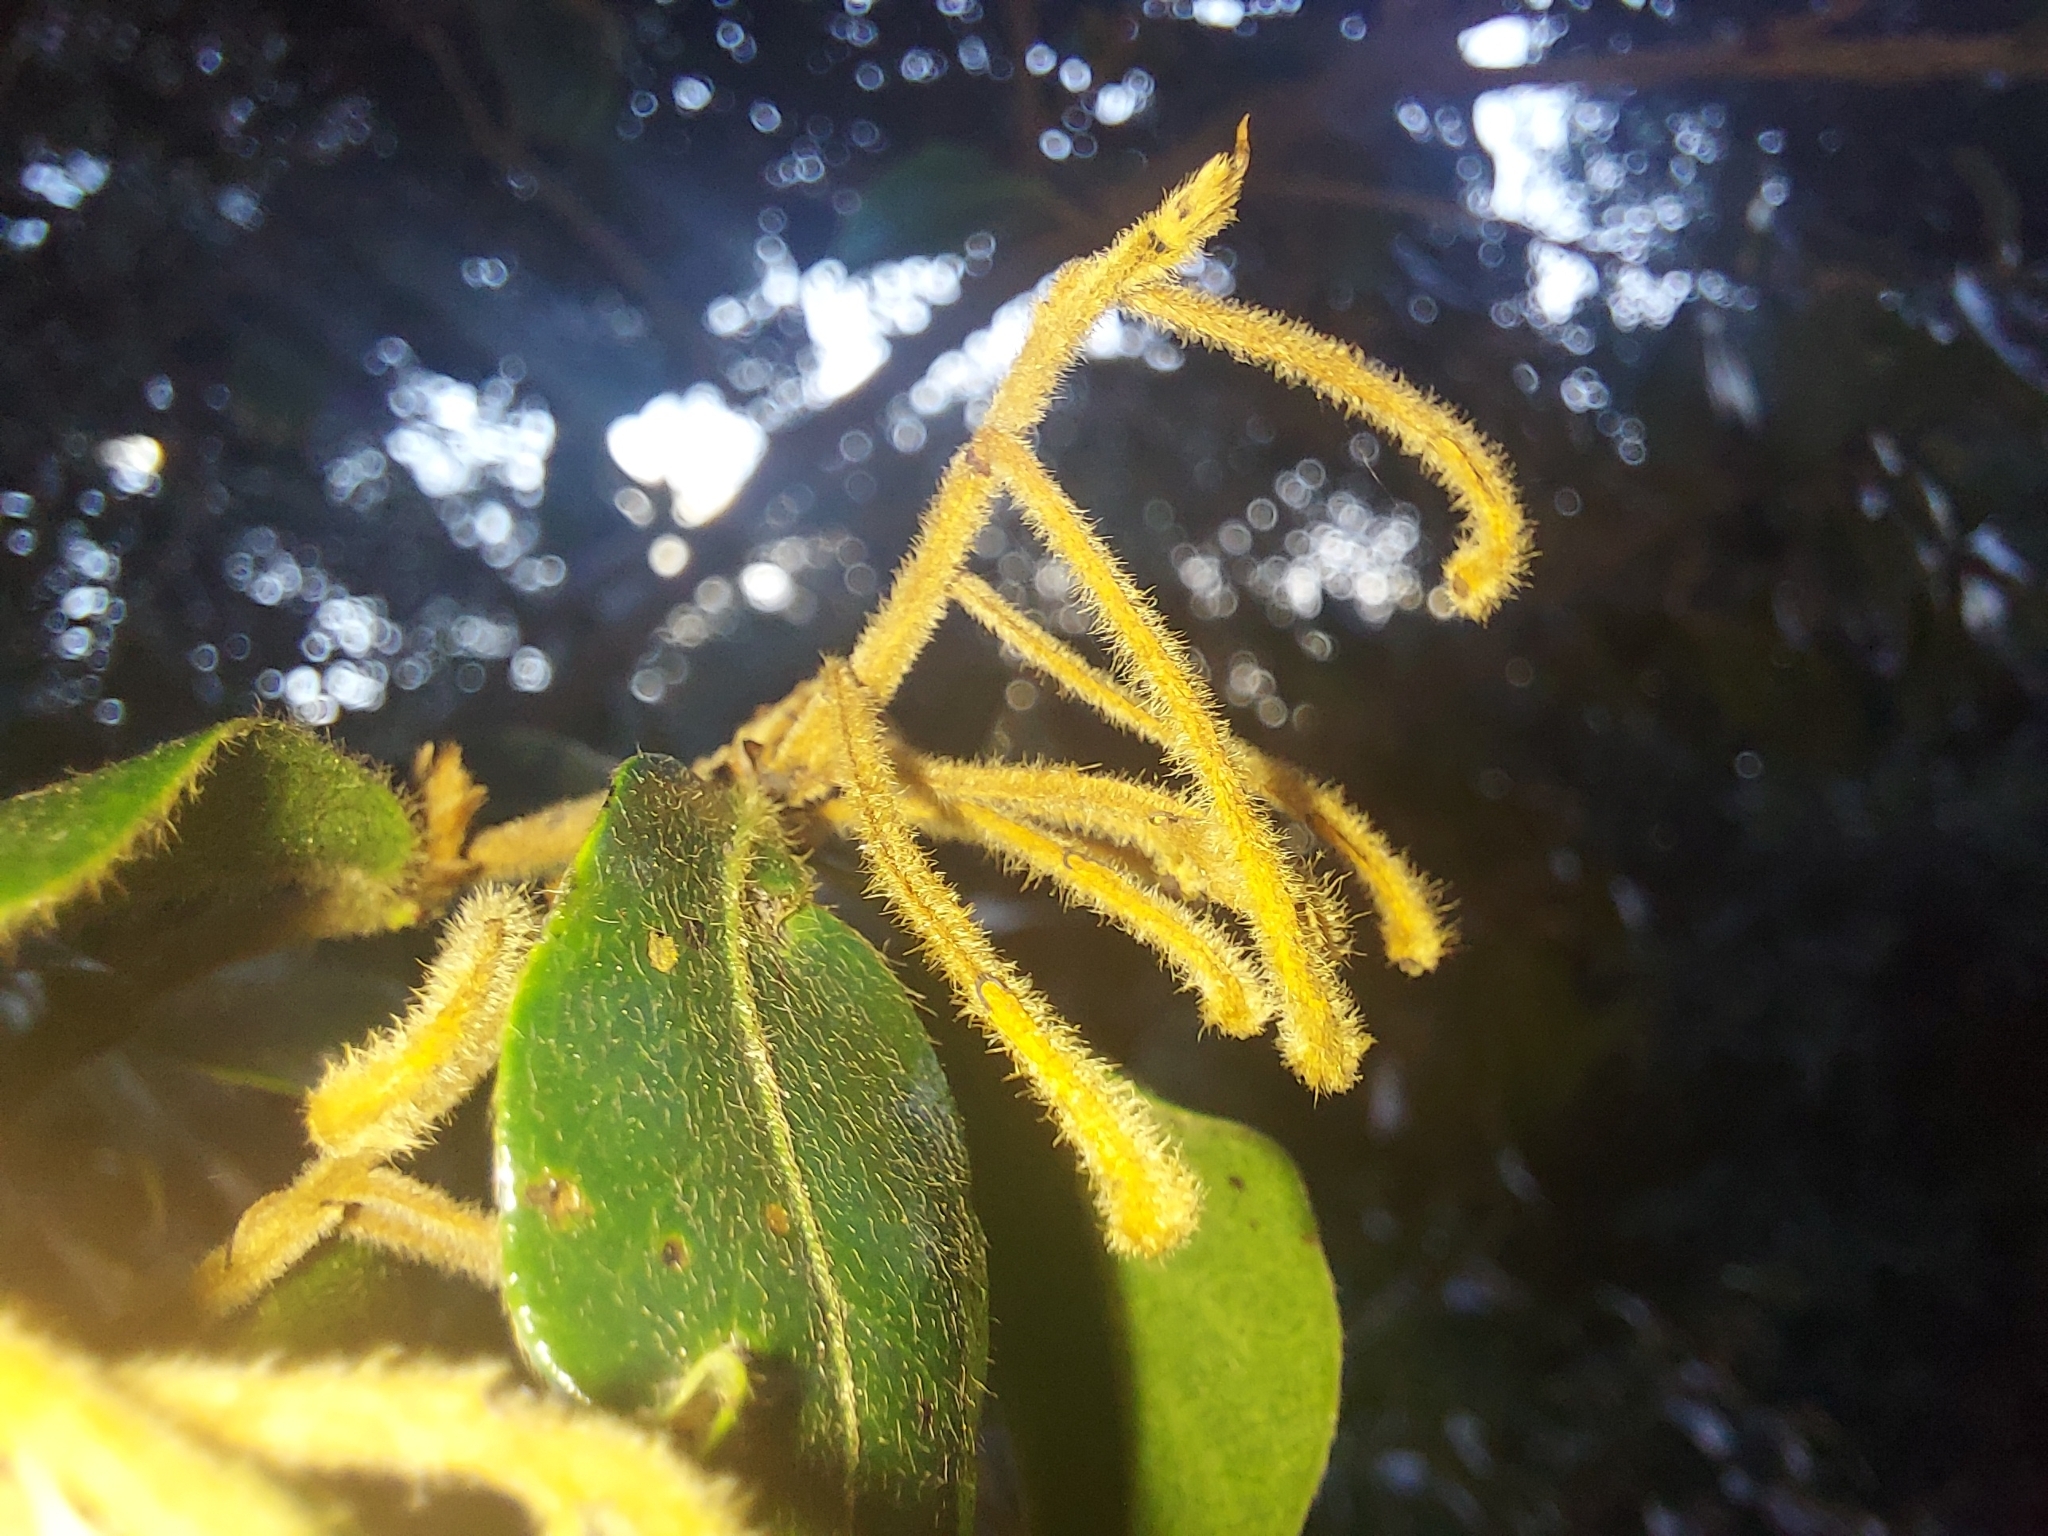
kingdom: Plantae
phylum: Tracheophyta
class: Magnoliopsida
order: Ericales
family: Ebenaceae
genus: Diospyros
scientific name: Diospyros whyteana
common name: Bladder-nut
